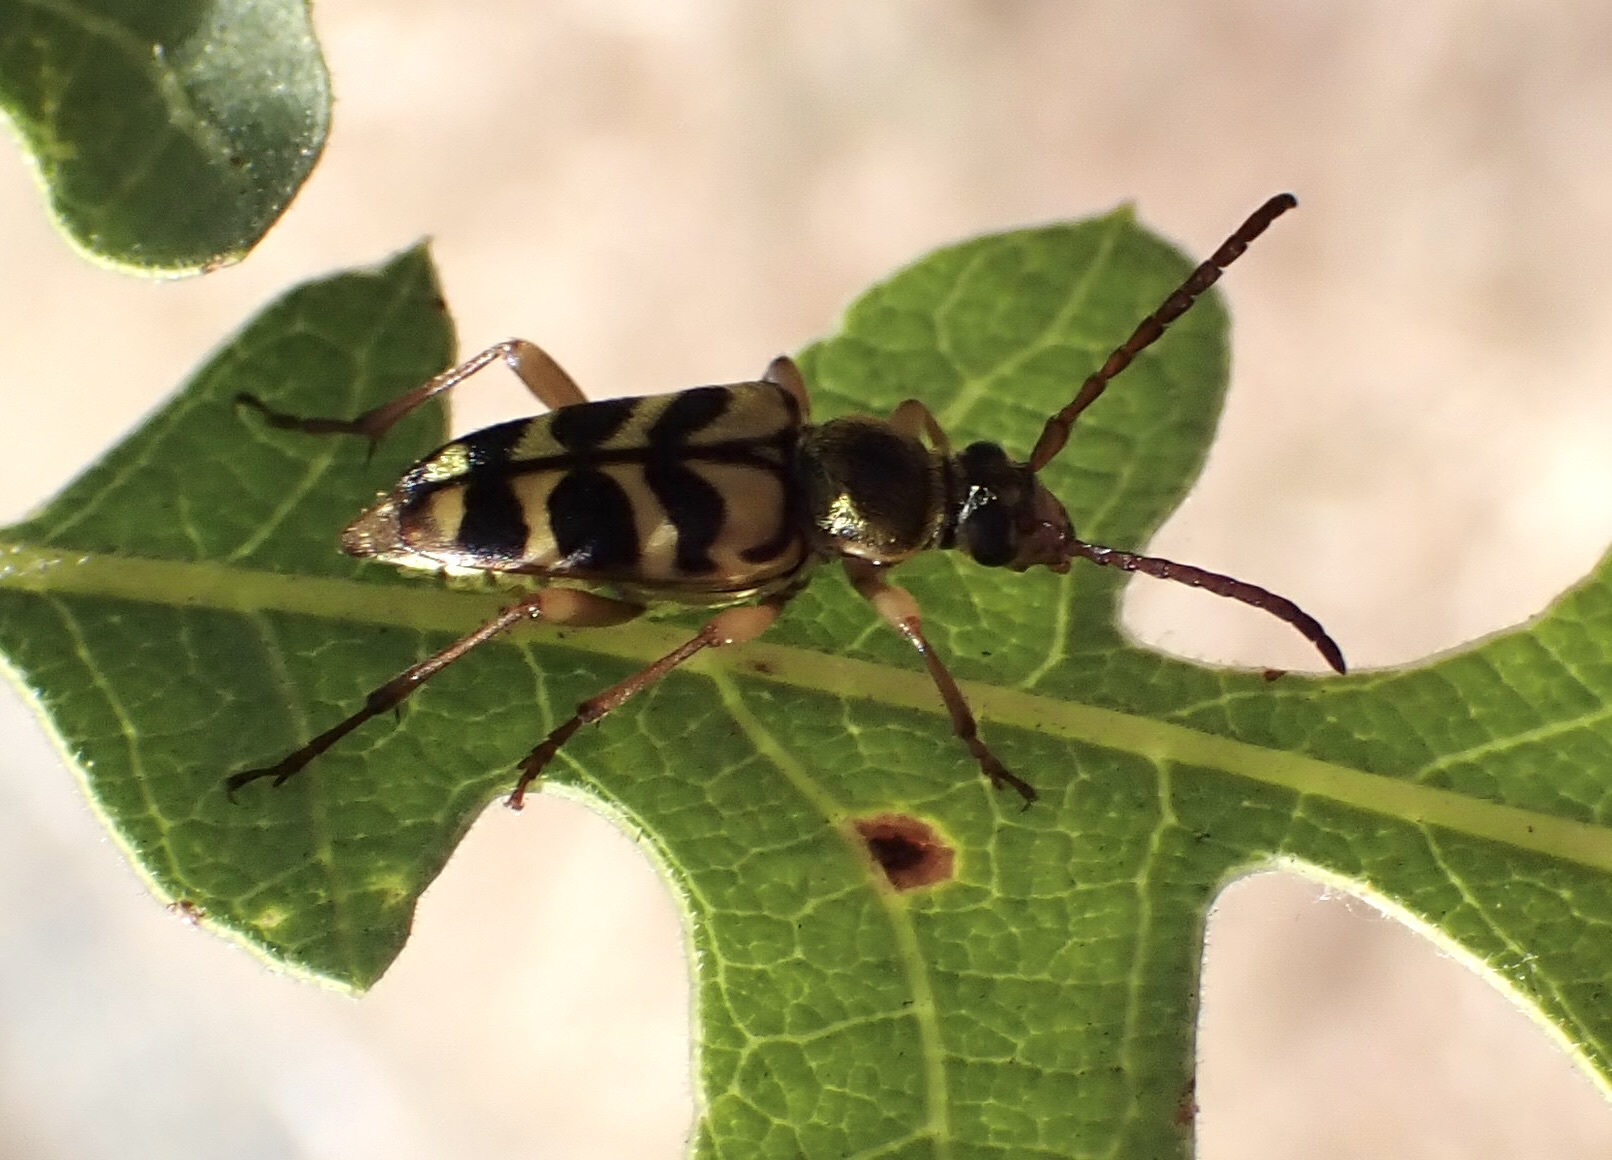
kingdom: Animalia
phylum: Arthropoda
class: Insecta
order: Coleoptera
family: Cerambycidae
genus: Strophiona
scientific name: Strophiona tigrina
